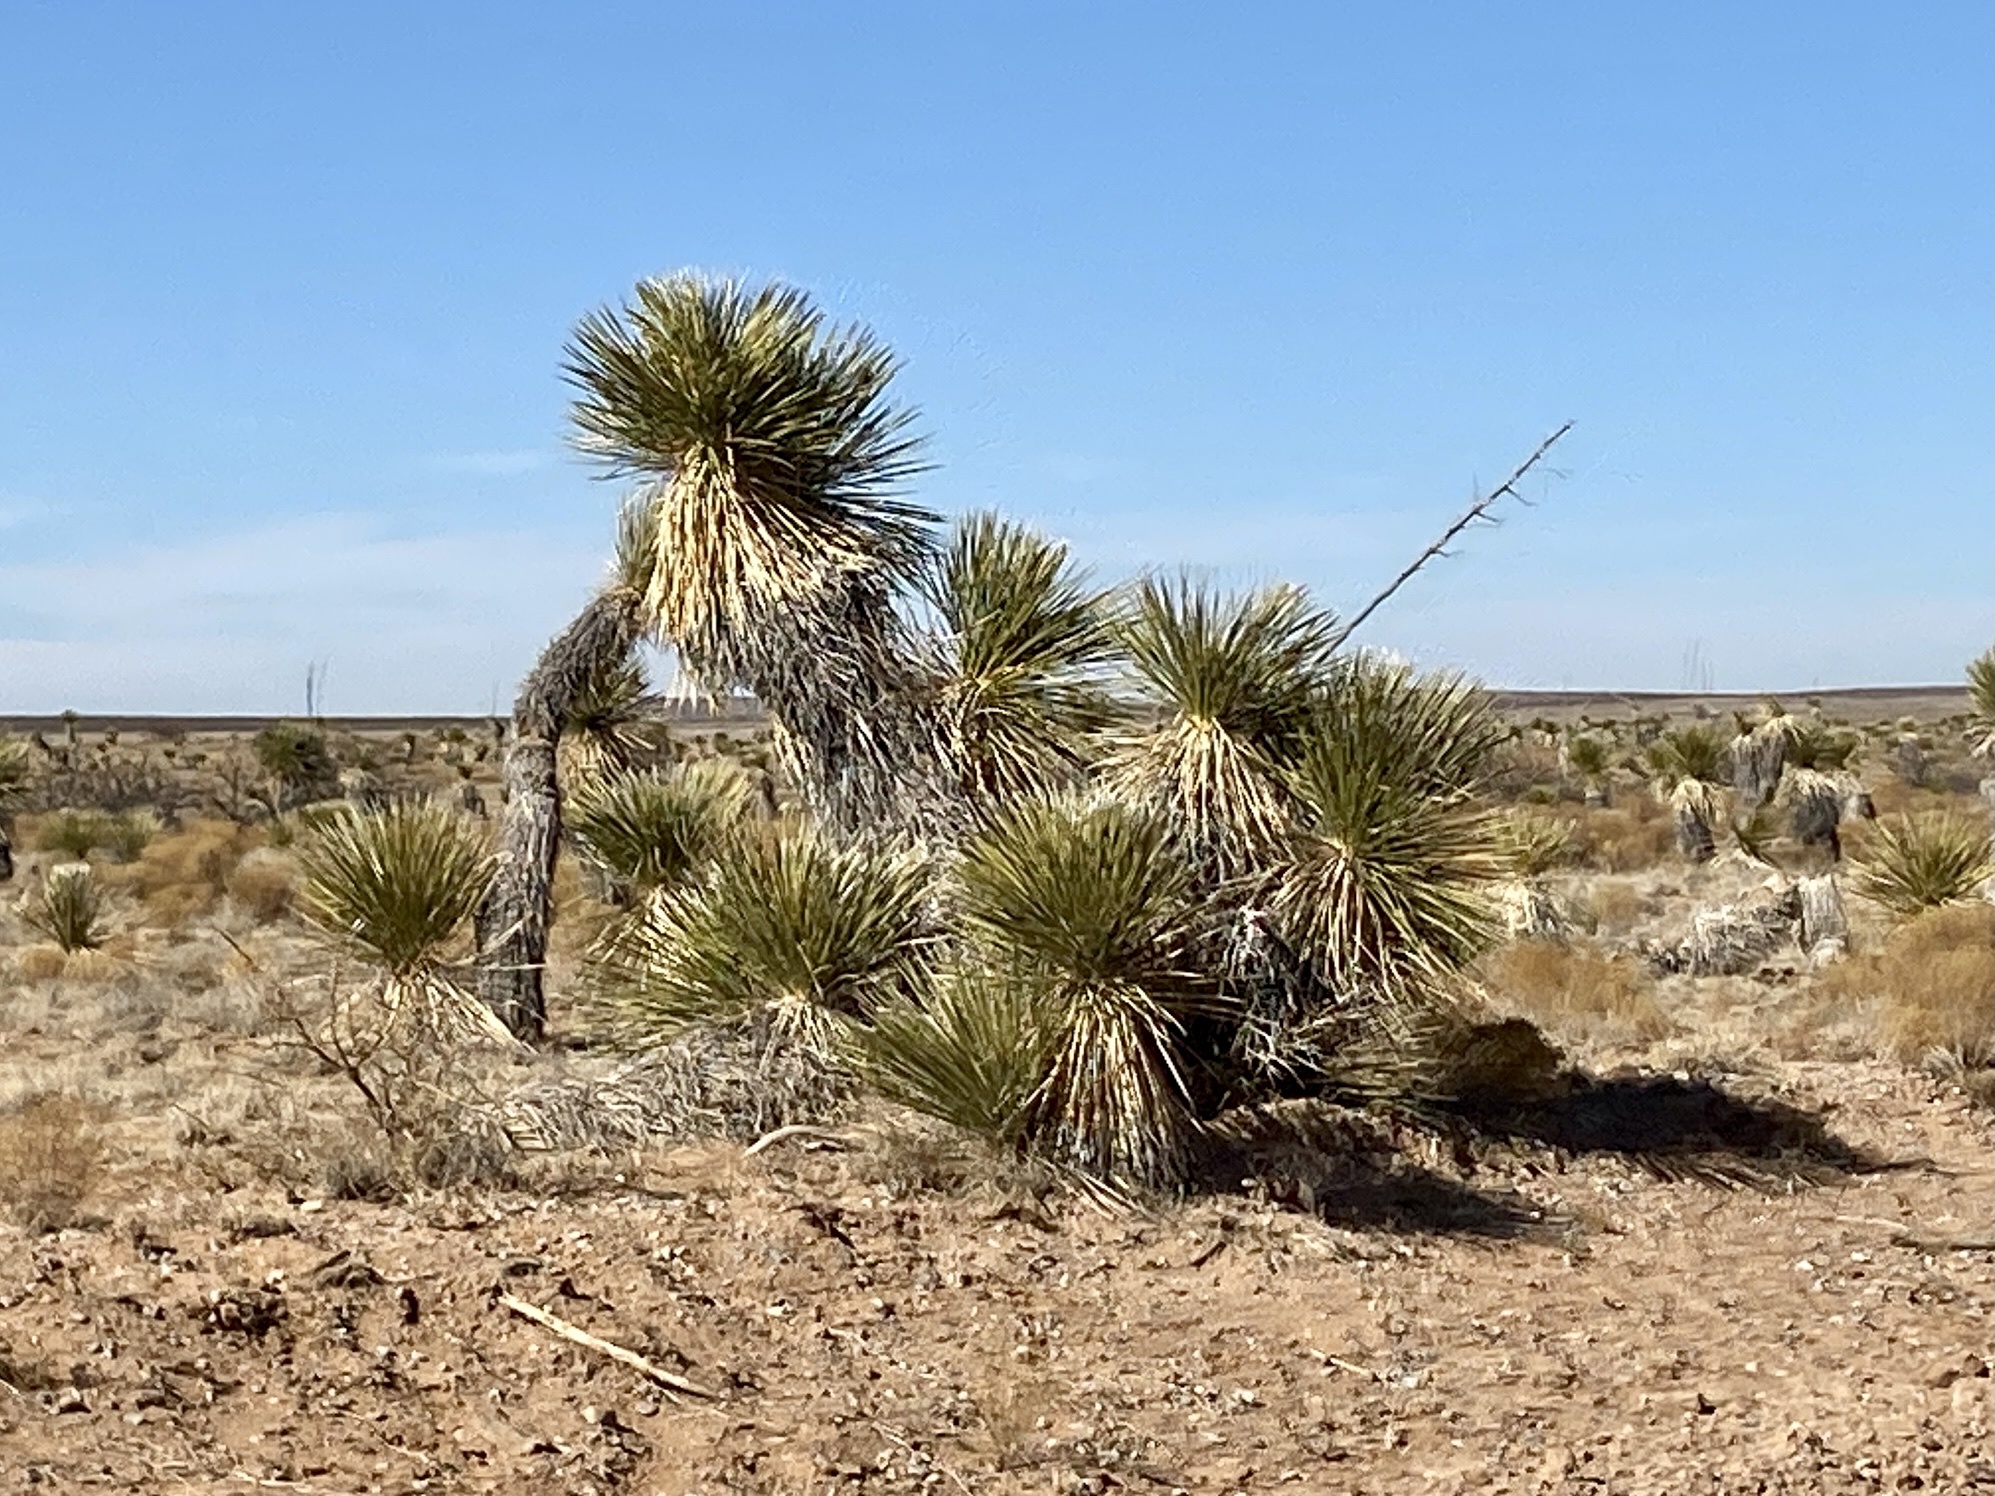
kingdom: Plantae
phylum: Tracheophyta
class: Liliopsida
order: Asparagales
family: Asparagaceae
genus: Yucca
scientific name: Yucca elata
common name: Palmella
